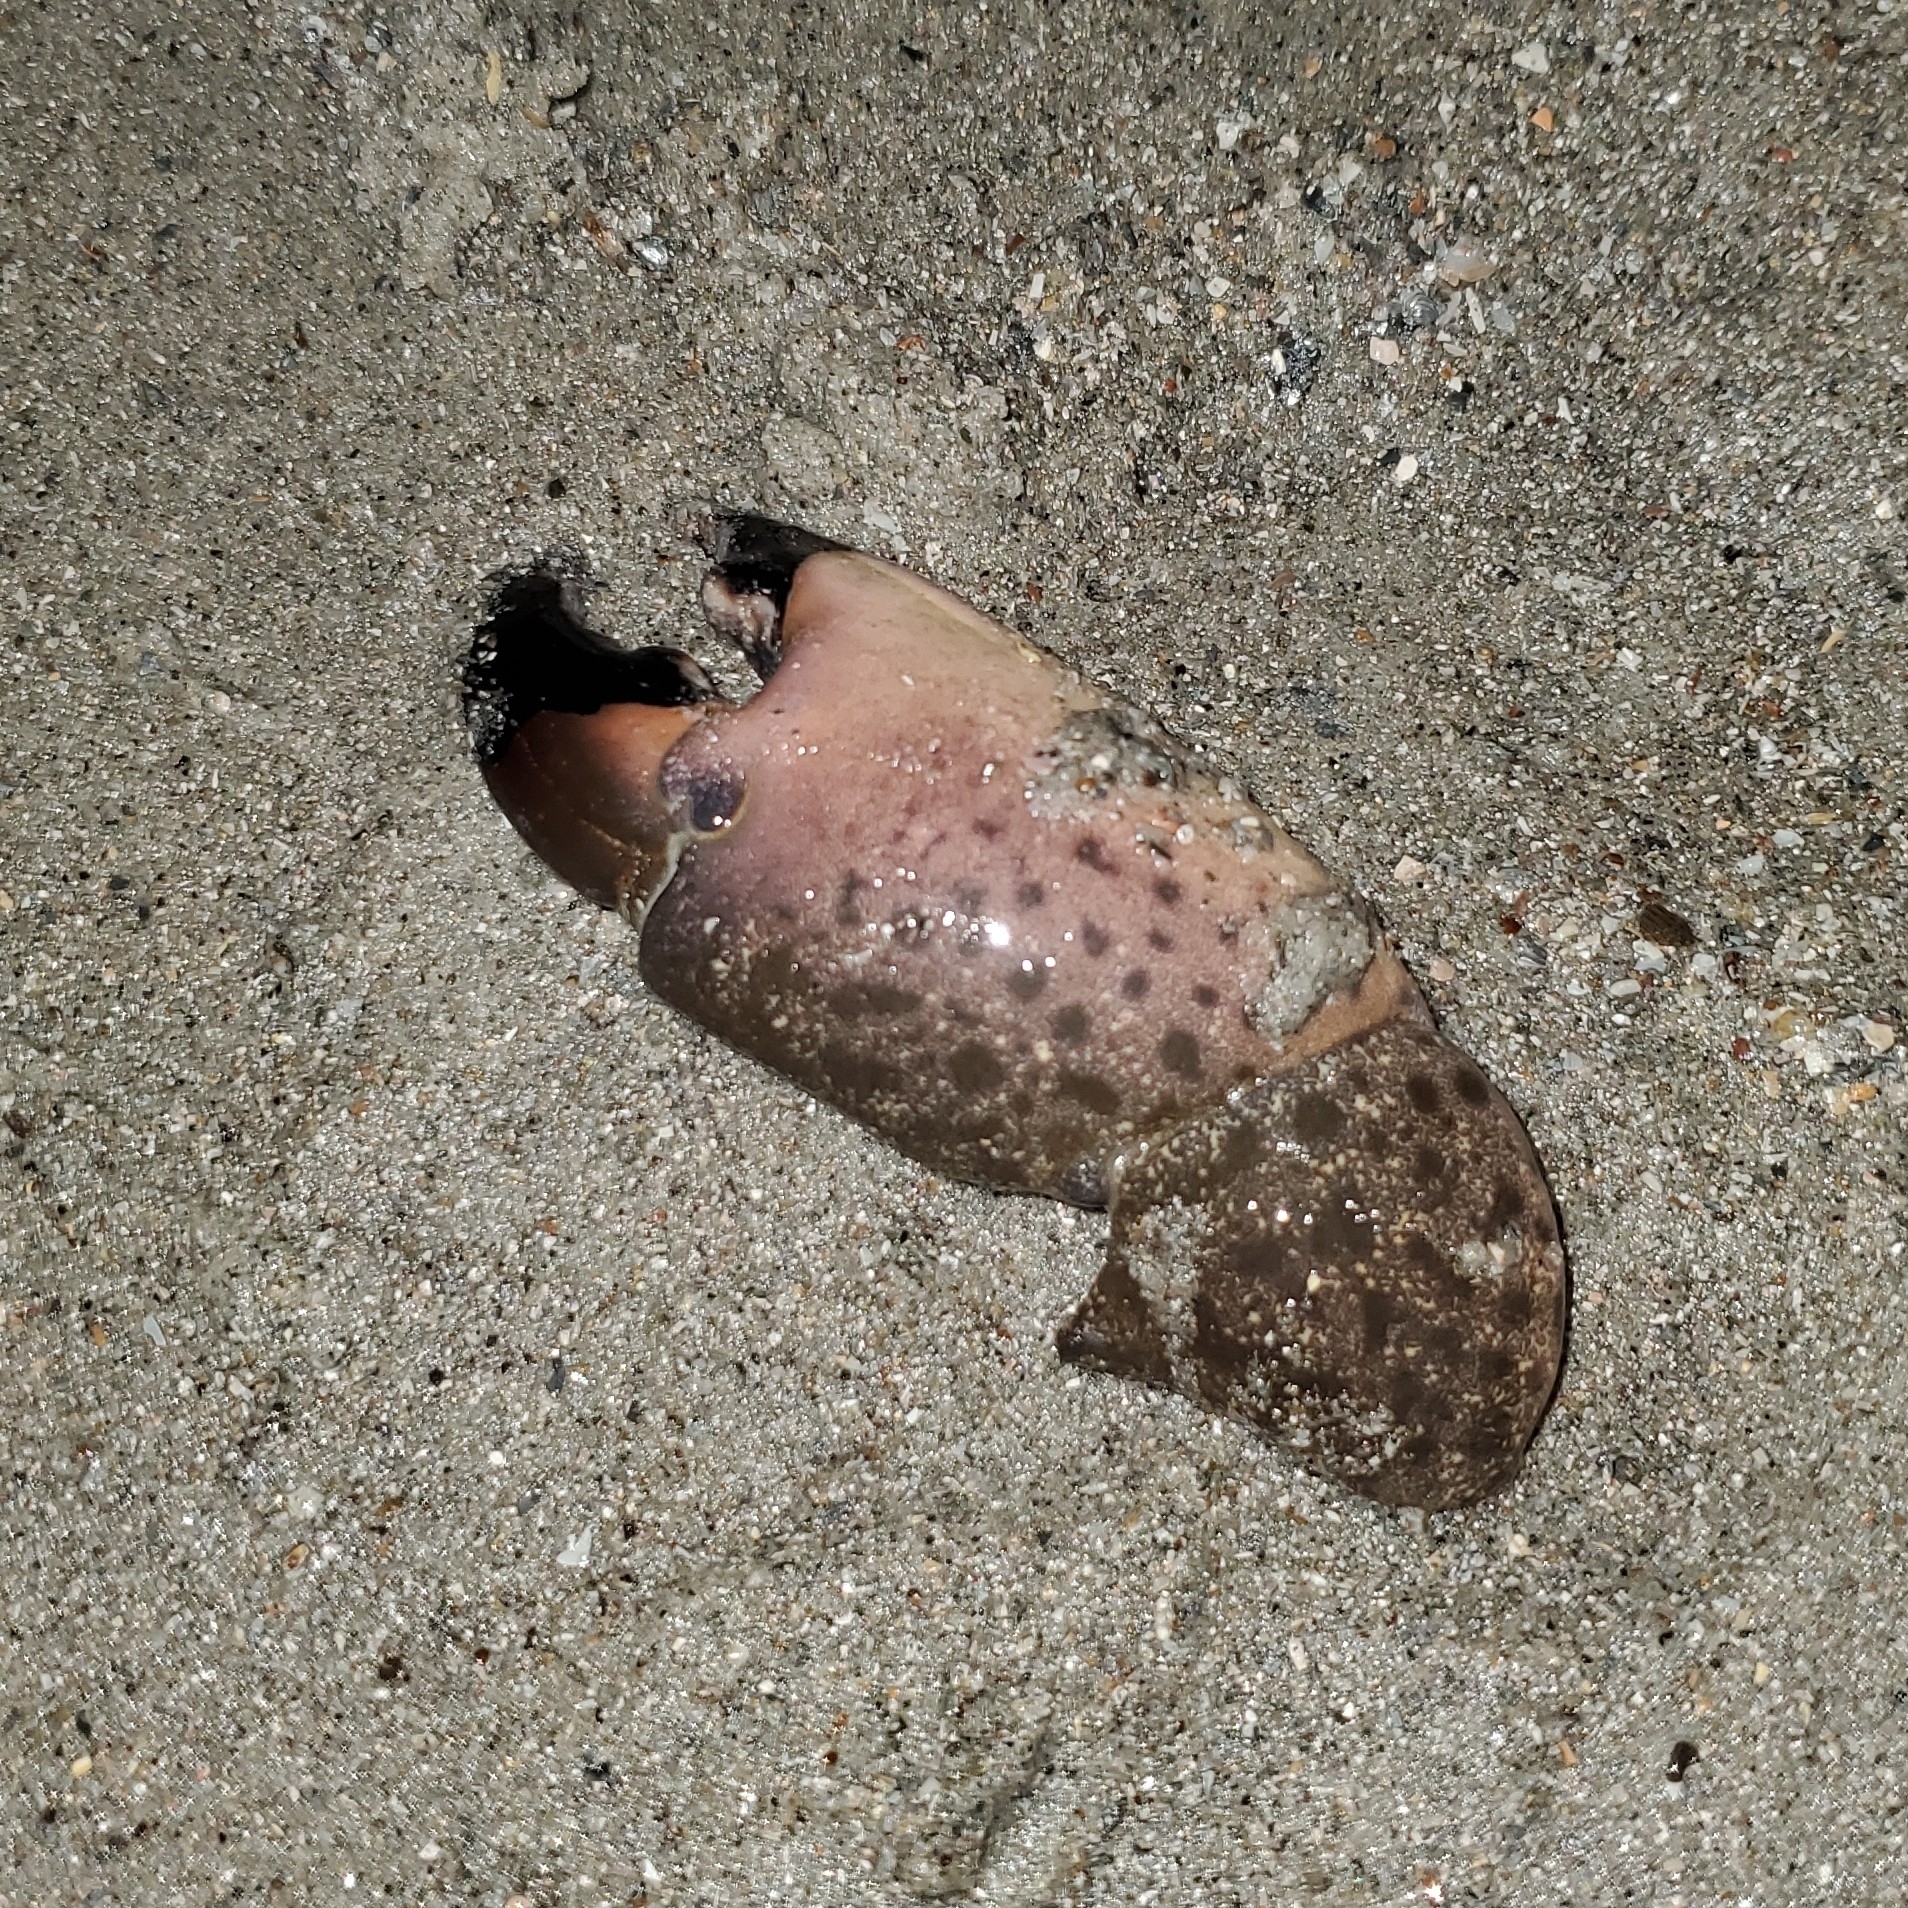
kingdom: Animalia
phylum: Arthropoda
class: Malacostraca
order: Decapoda
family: Menippidae
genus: Menippe
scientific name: Menippe mercenaria
